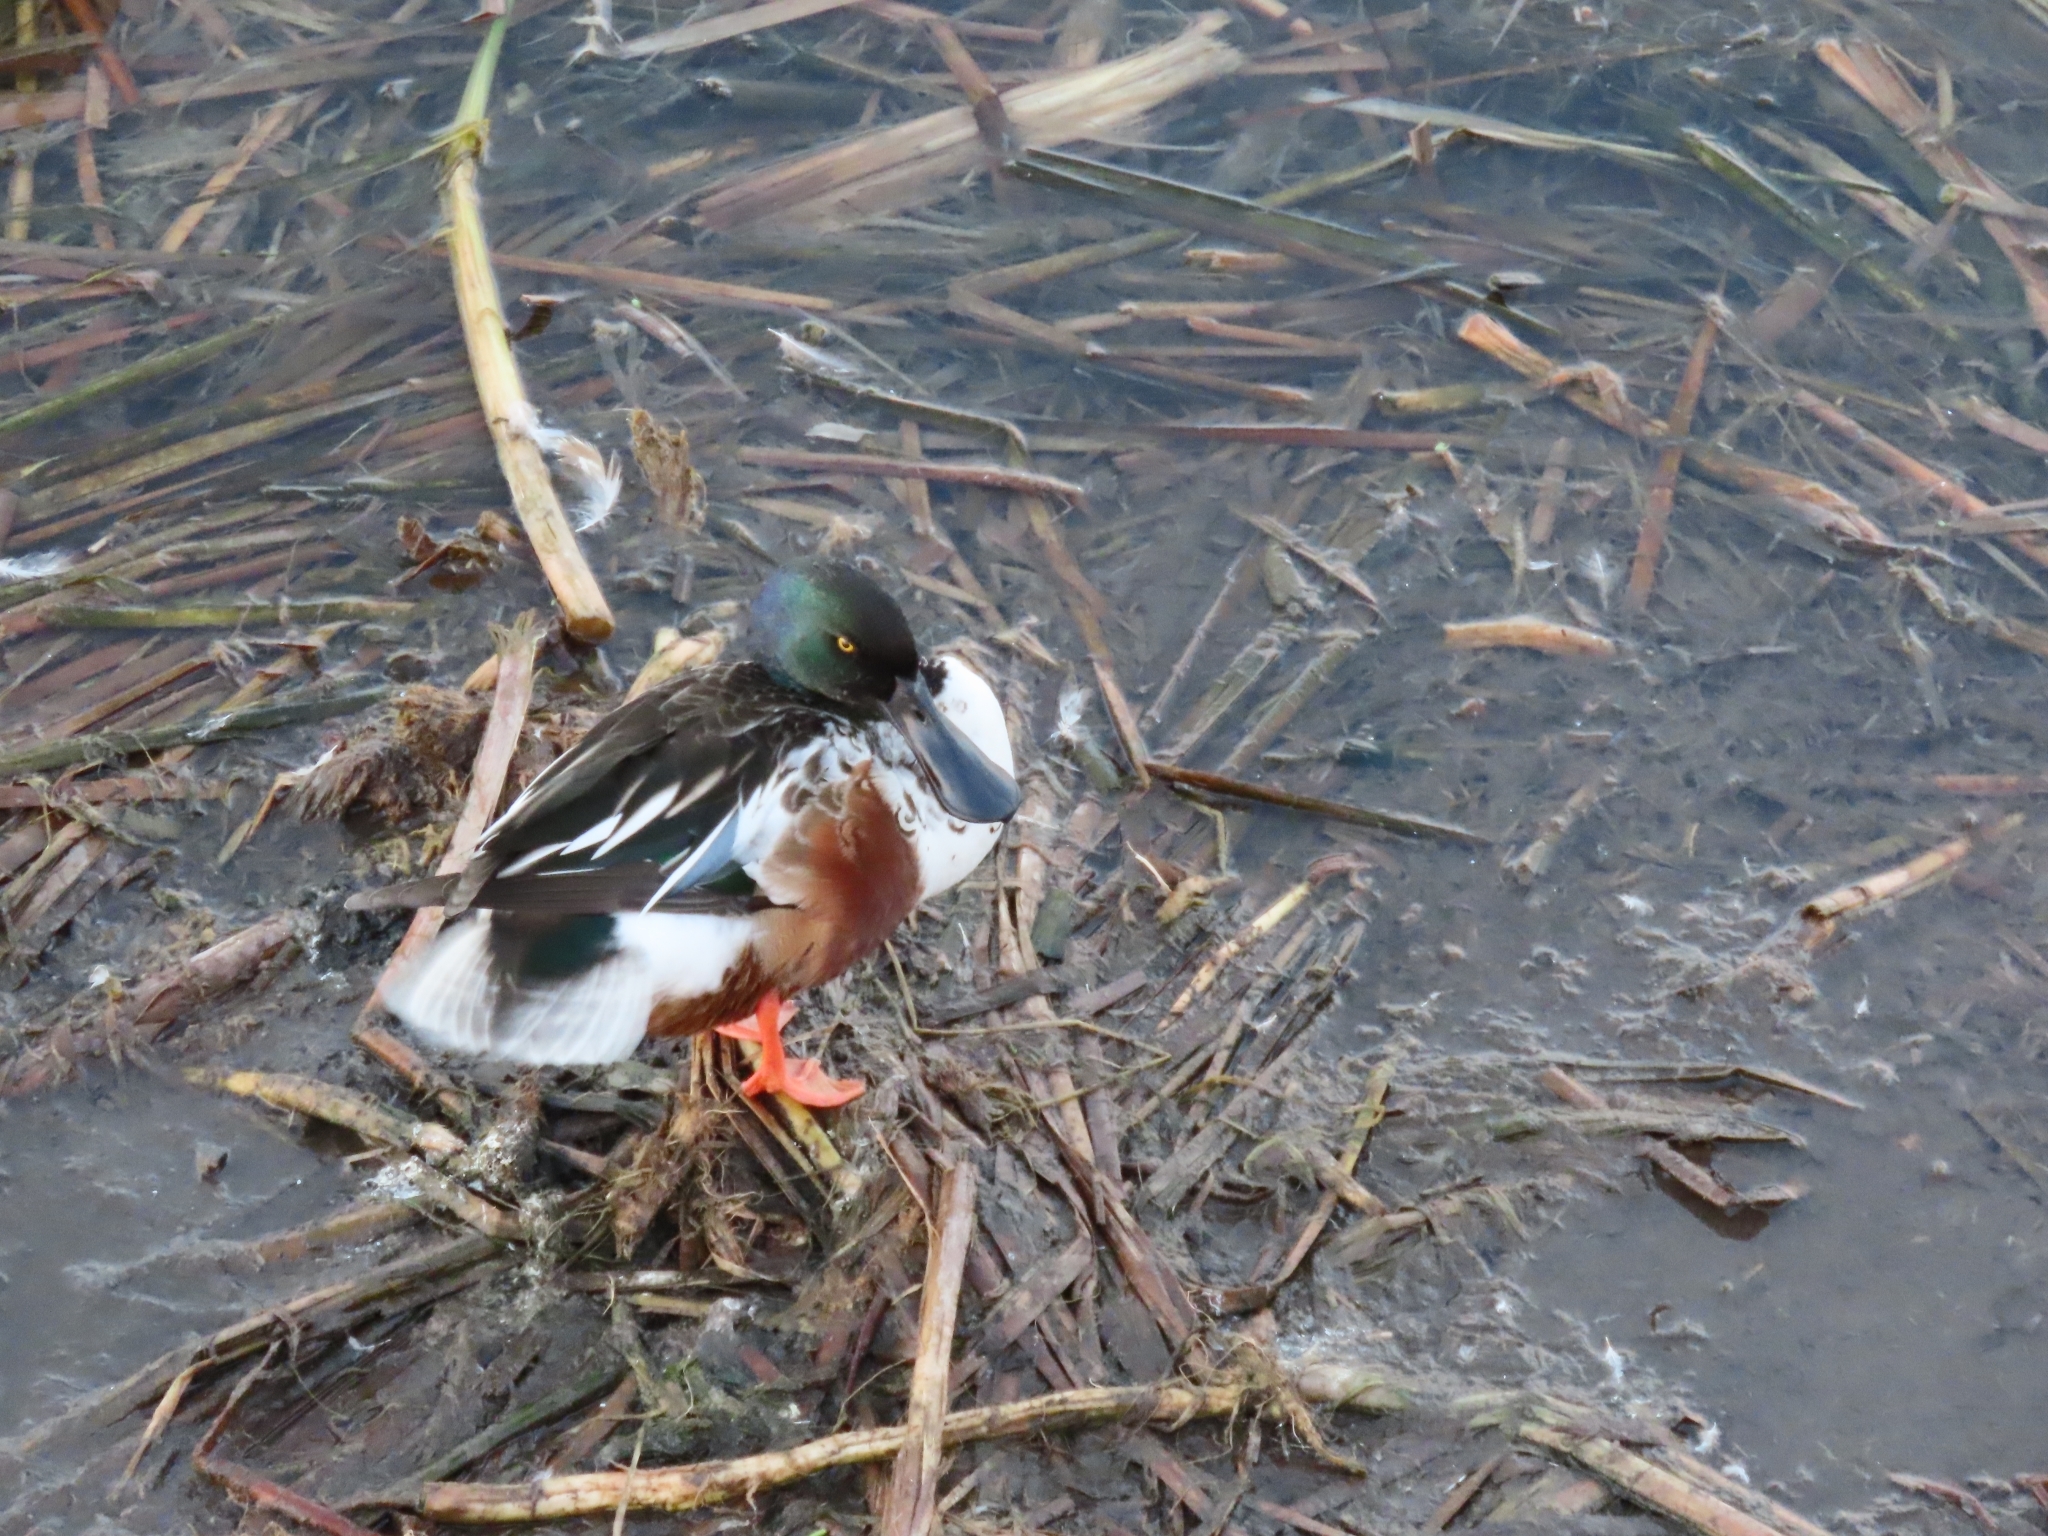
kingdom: Animalia
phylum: Chordata
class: Aves
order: Anseriformes
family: Anatidae
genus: Spatula
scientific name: Spatula clypeata
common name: Northern shoveler
